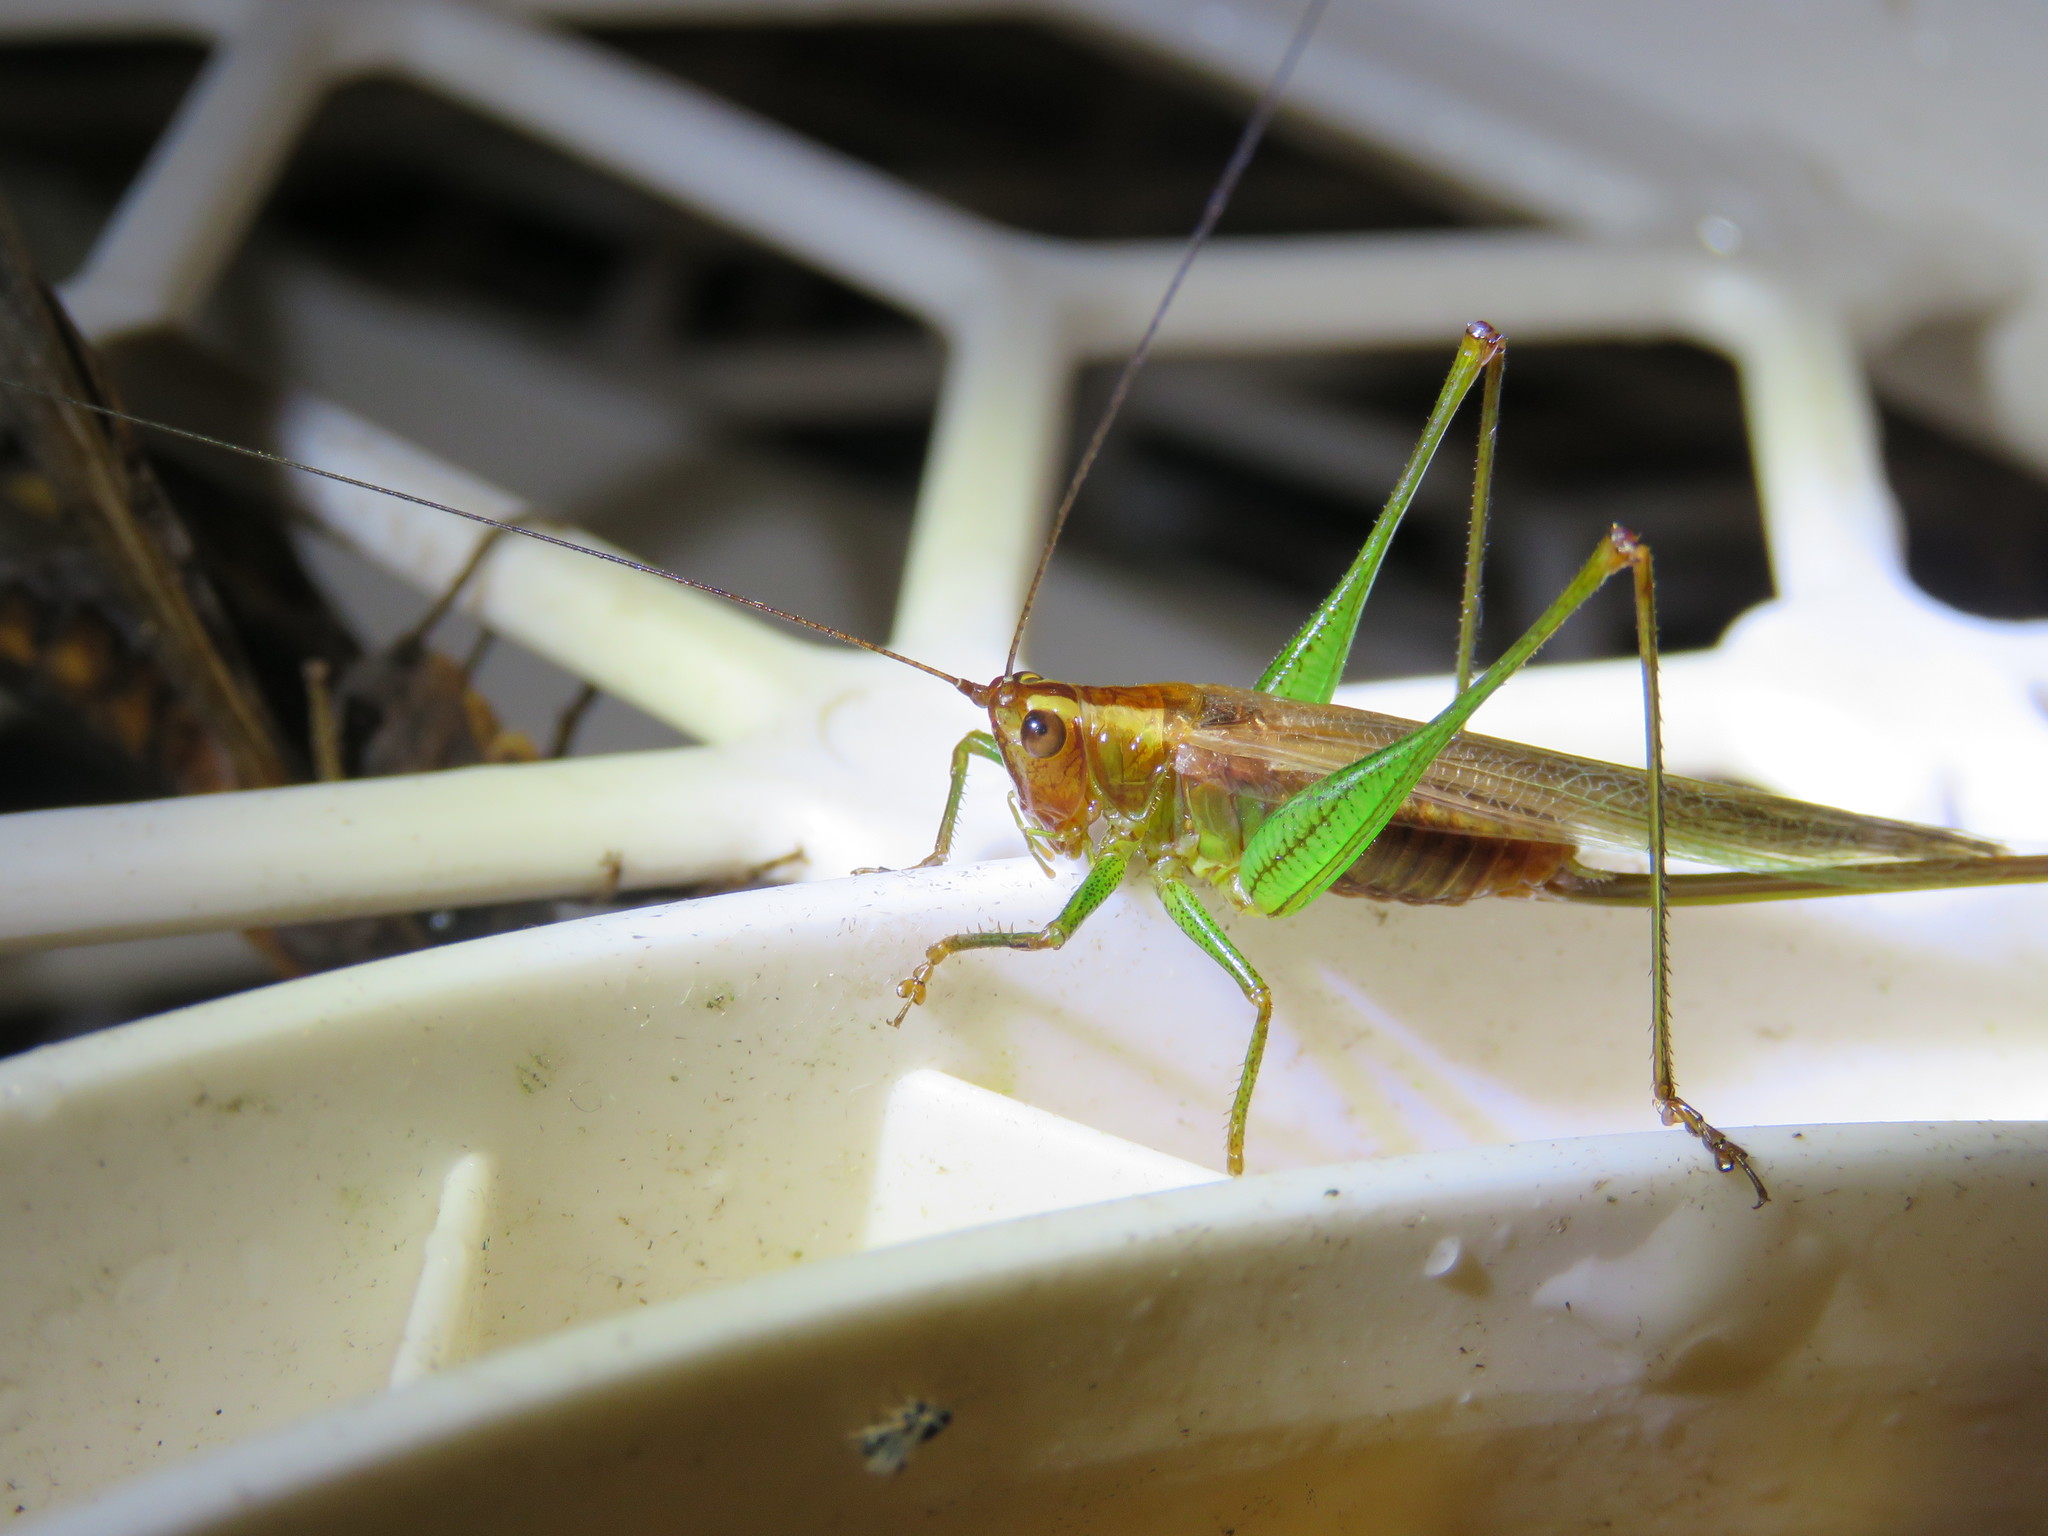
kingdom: Animalia
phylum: Arthropoda
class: Insecta
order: Orthoptera
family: Tettigoniidae
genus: Conocephalus
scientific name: Conocephalus attenuatus
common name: Long-tailed meadow katydid
